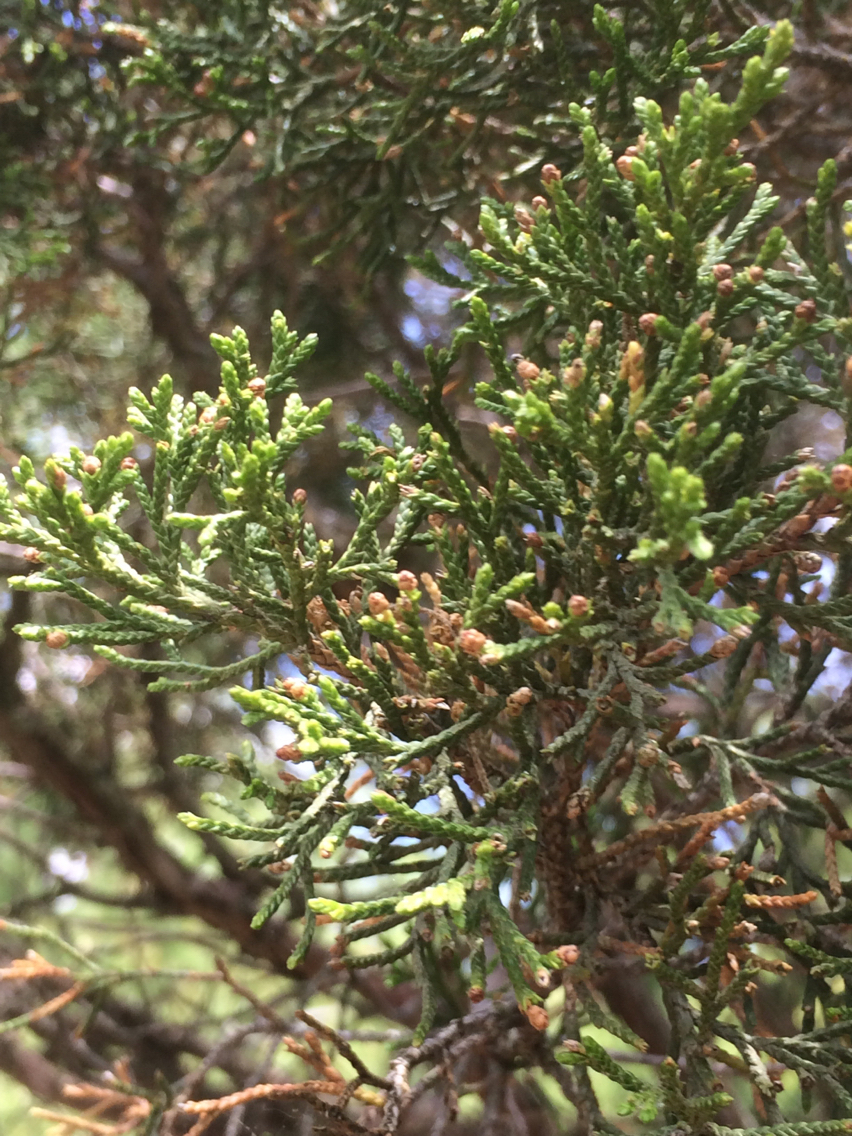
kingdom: Plantae
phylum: Tracheophyta
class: Pinopsida
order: Pinales
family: Cupressaceae
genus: Juniperus
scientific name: Juniperus virginiana
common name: Red juniper
